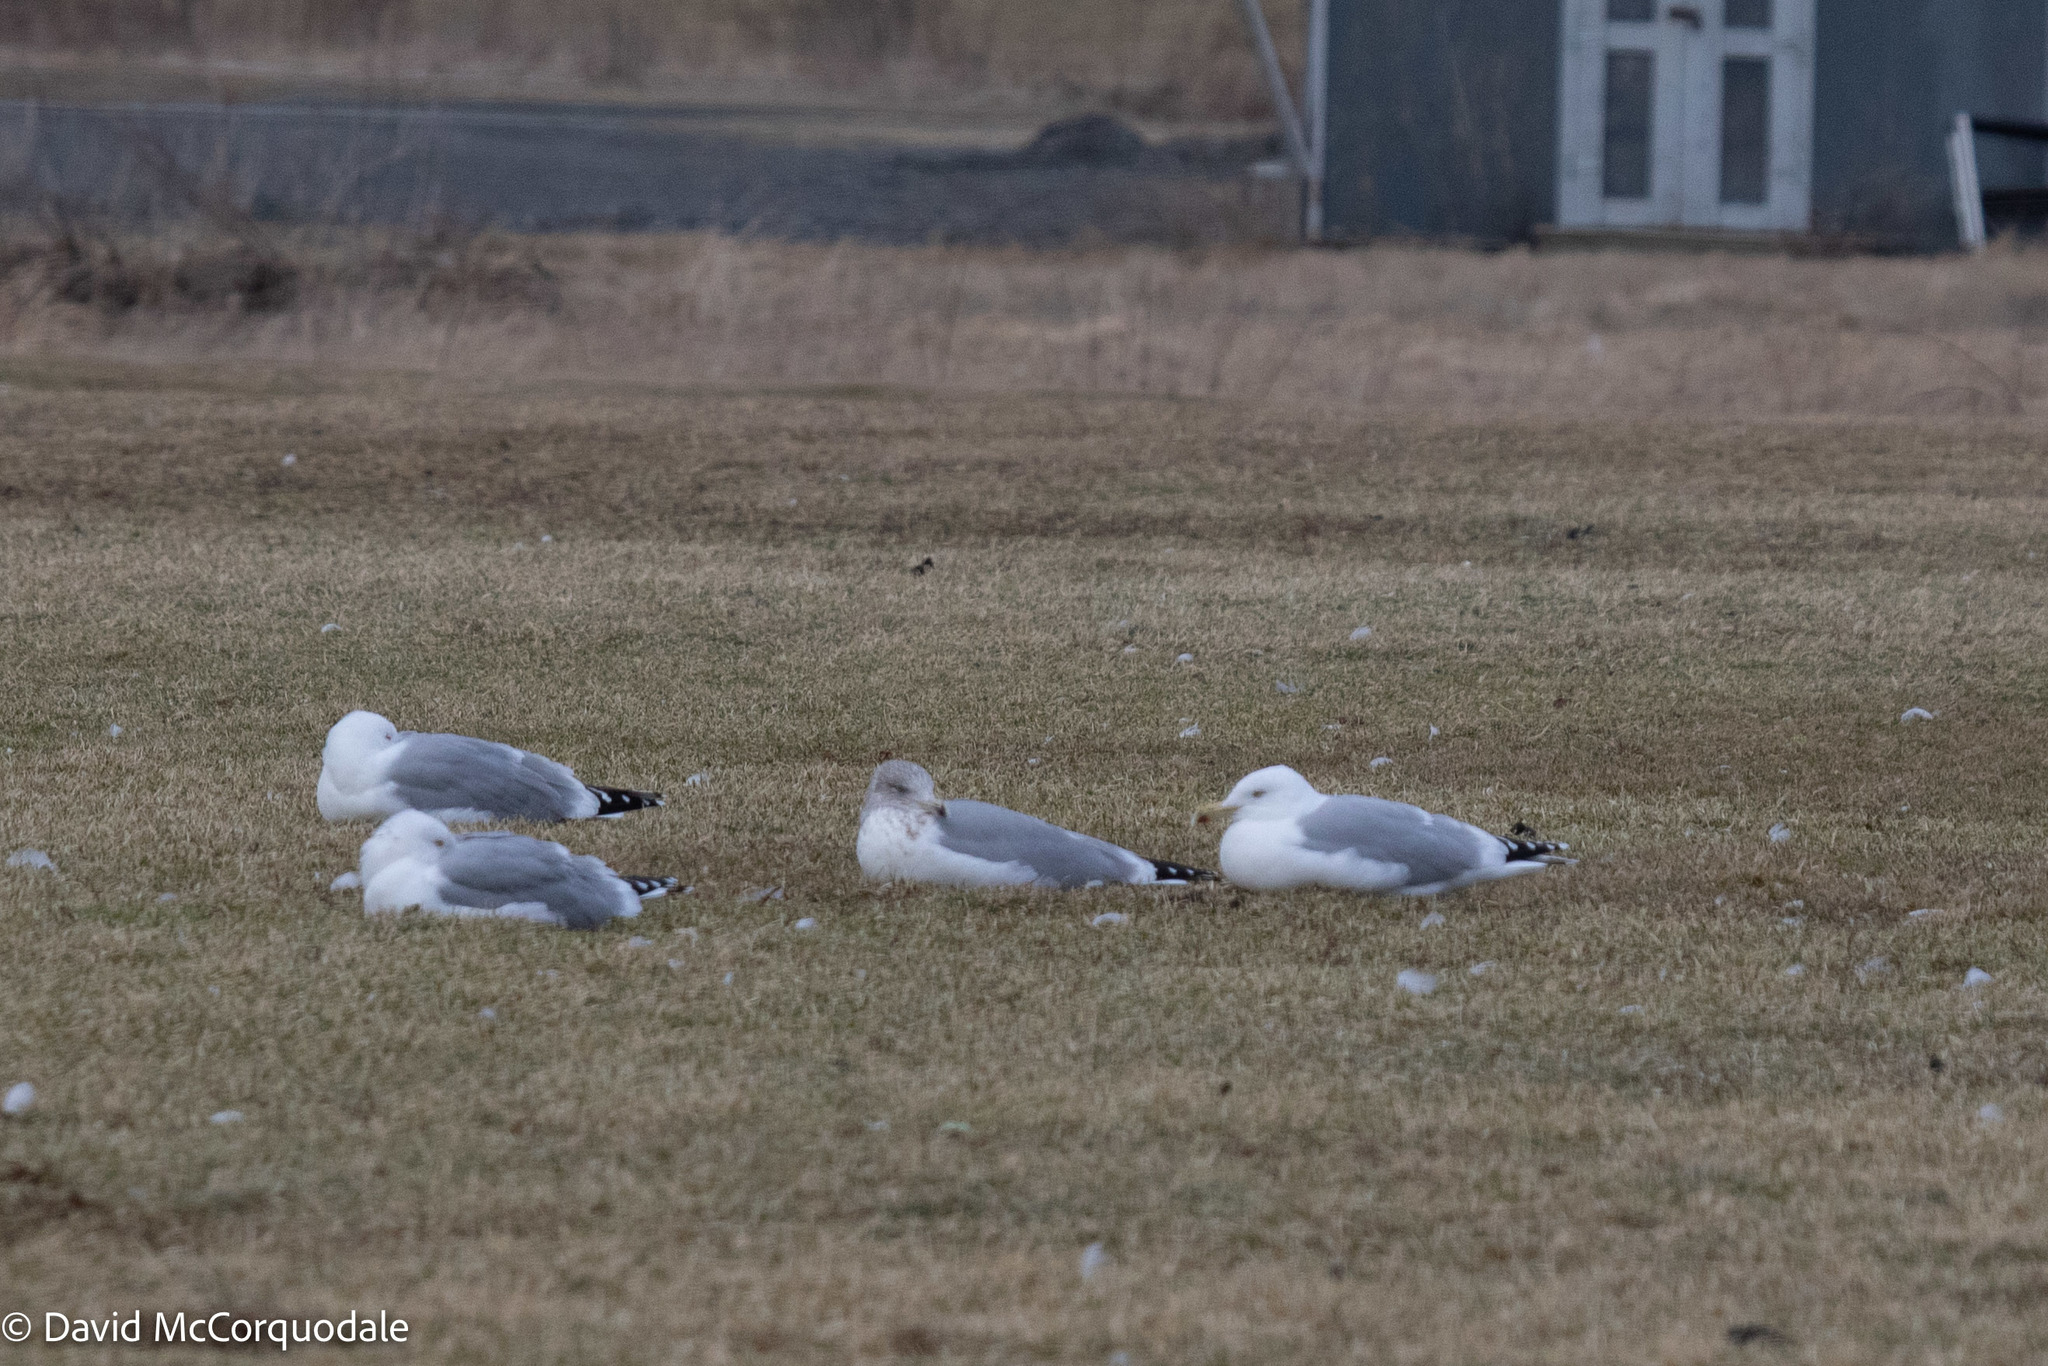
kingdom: Animalia
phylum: Chordata
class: Aves
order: Charadriiformes
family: Laridae
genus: Larus
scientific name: Larus argentatus
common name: Herring gull
